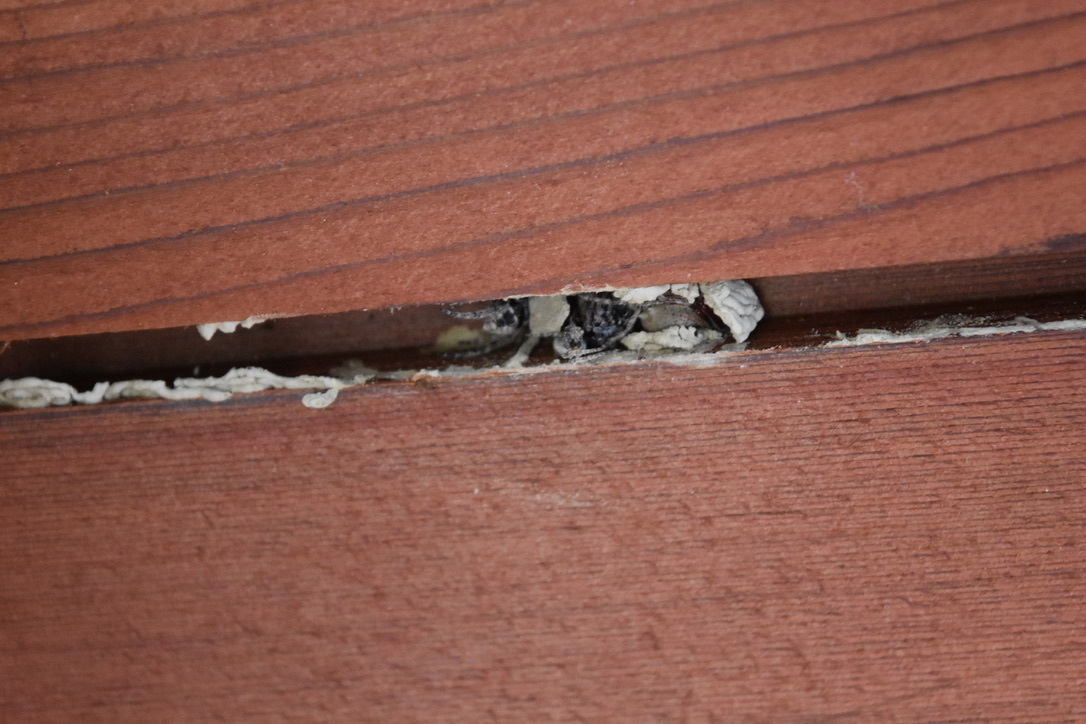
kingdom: Animalia
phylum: Arthropoda
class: Insecta
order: Hymenoptera
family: Crabronidae
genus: Pison
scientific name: Pison spinolae
